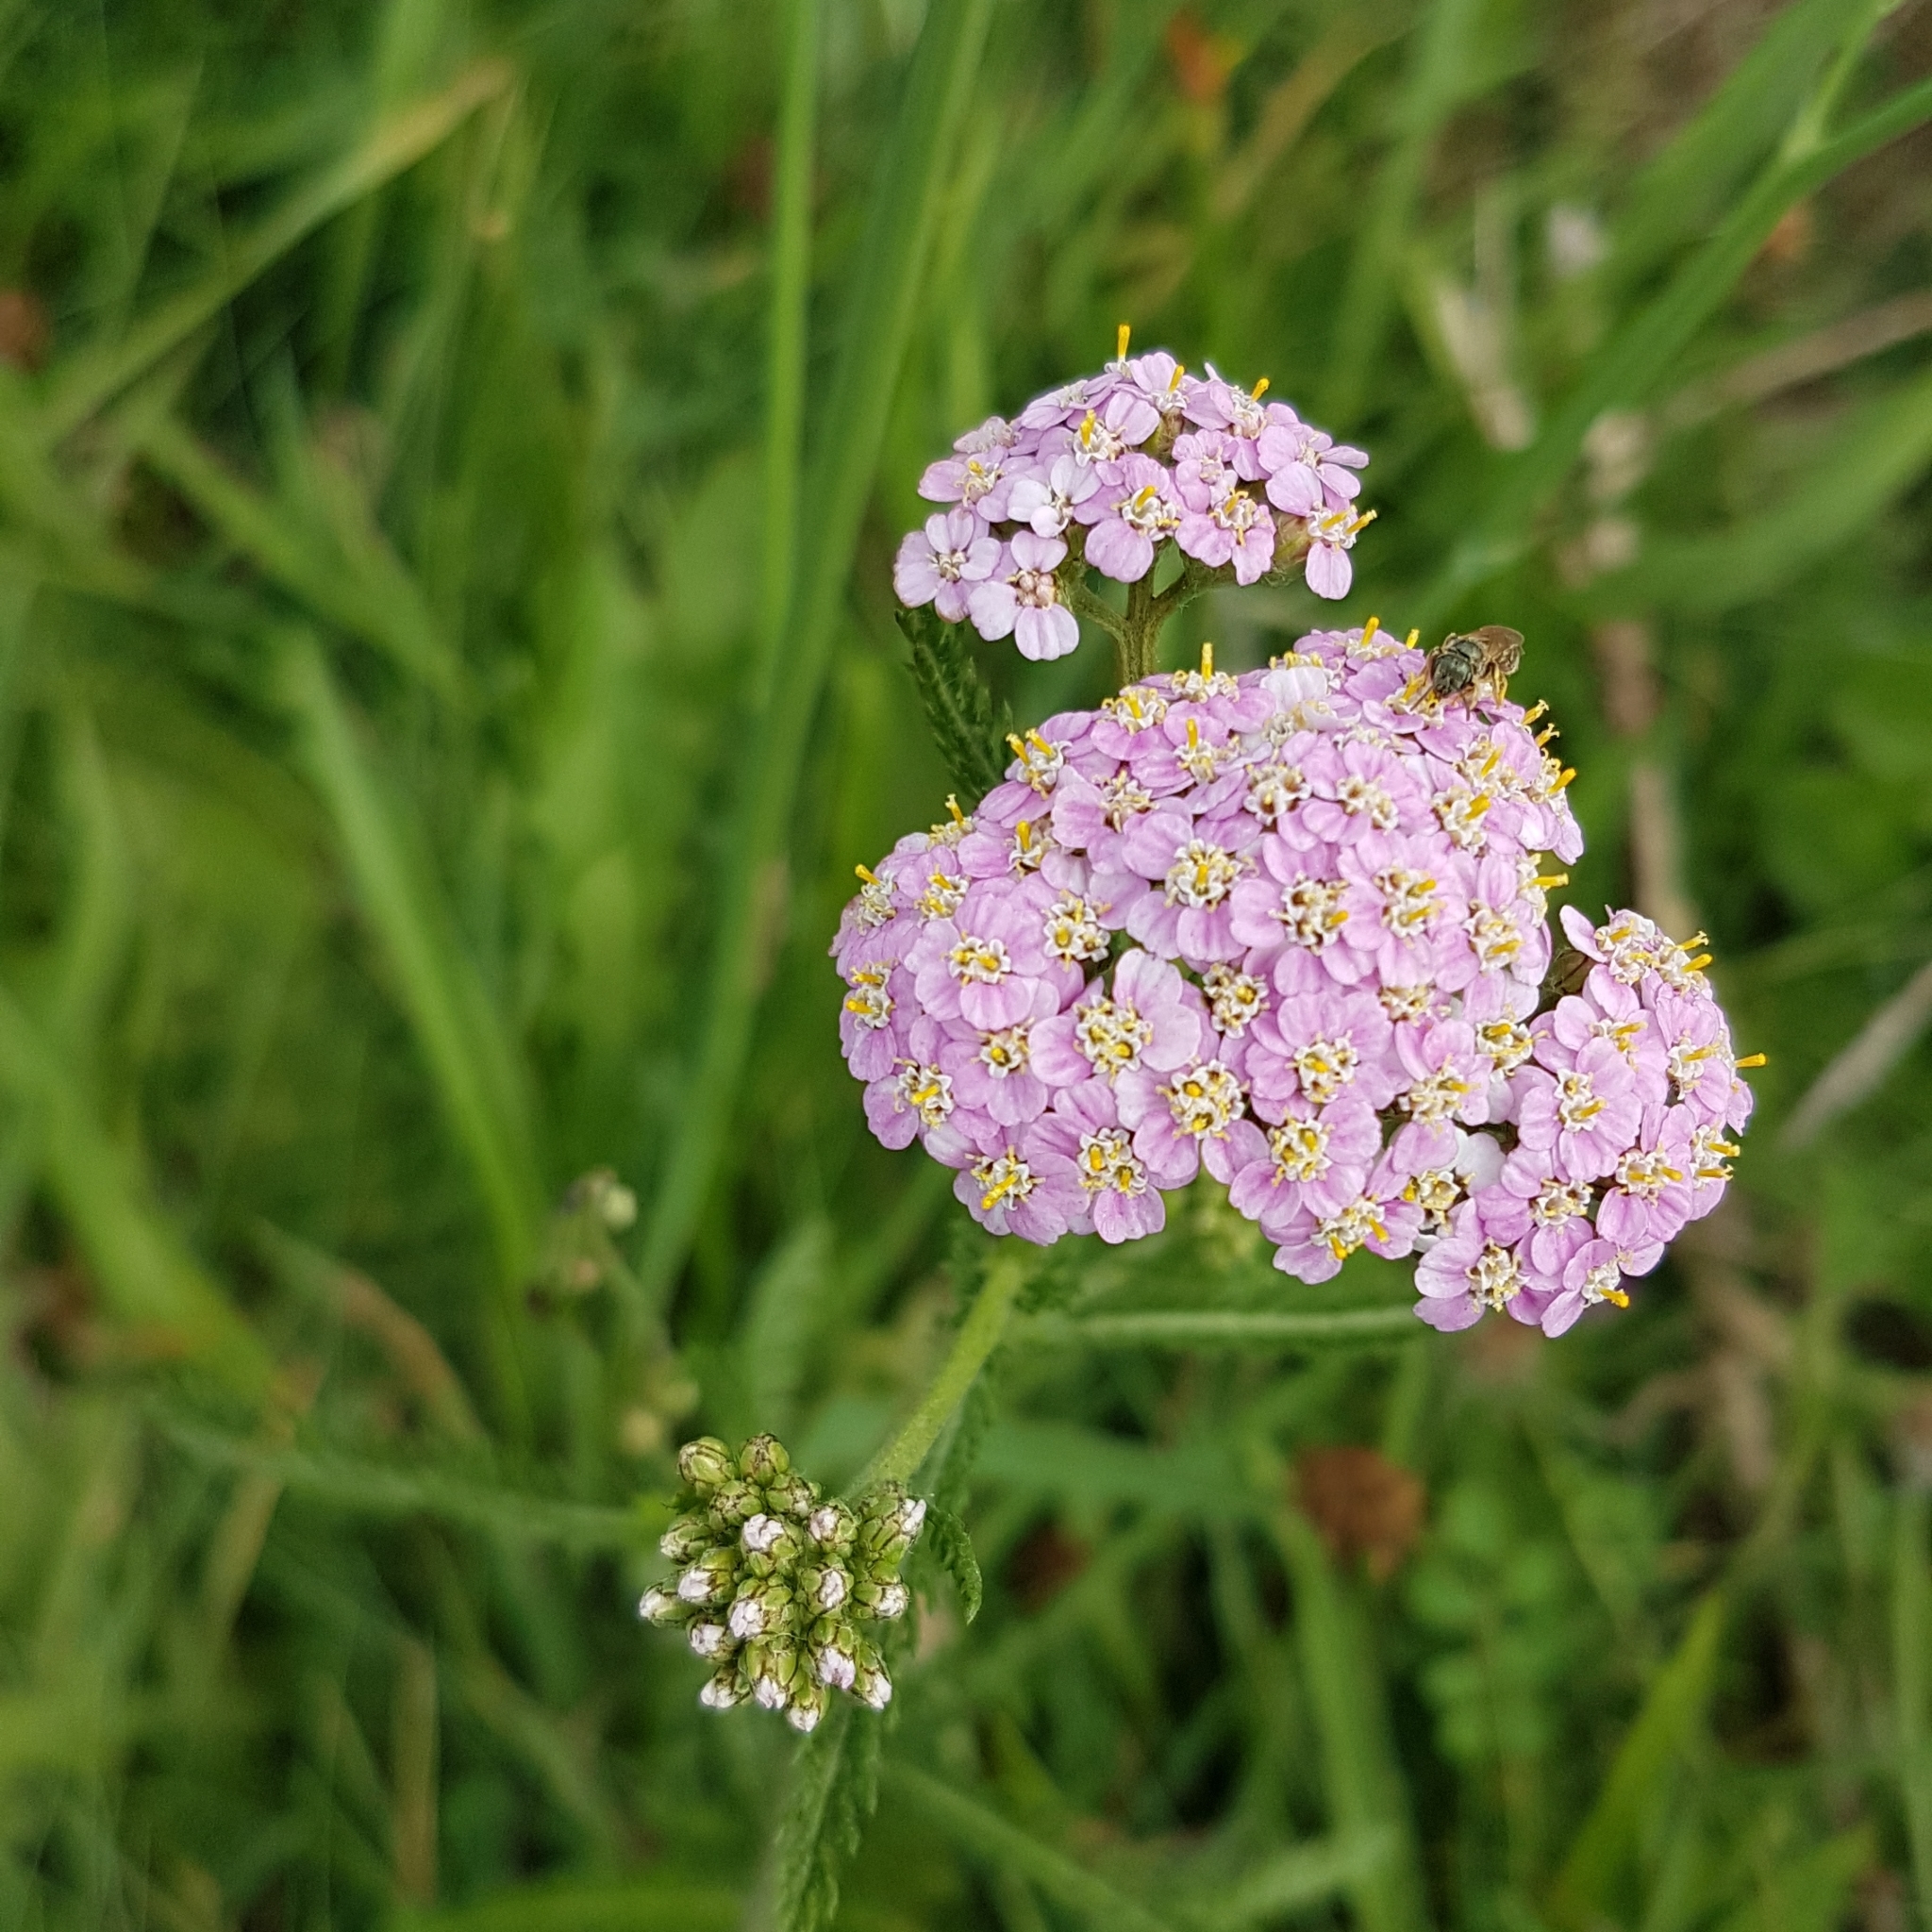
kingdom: Plantae
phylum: Tracheophyta
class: Magnoliopsida
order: Asterales
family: Asteraceae
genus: Achillea
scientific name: Achillea millefolium
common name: Yarrow
